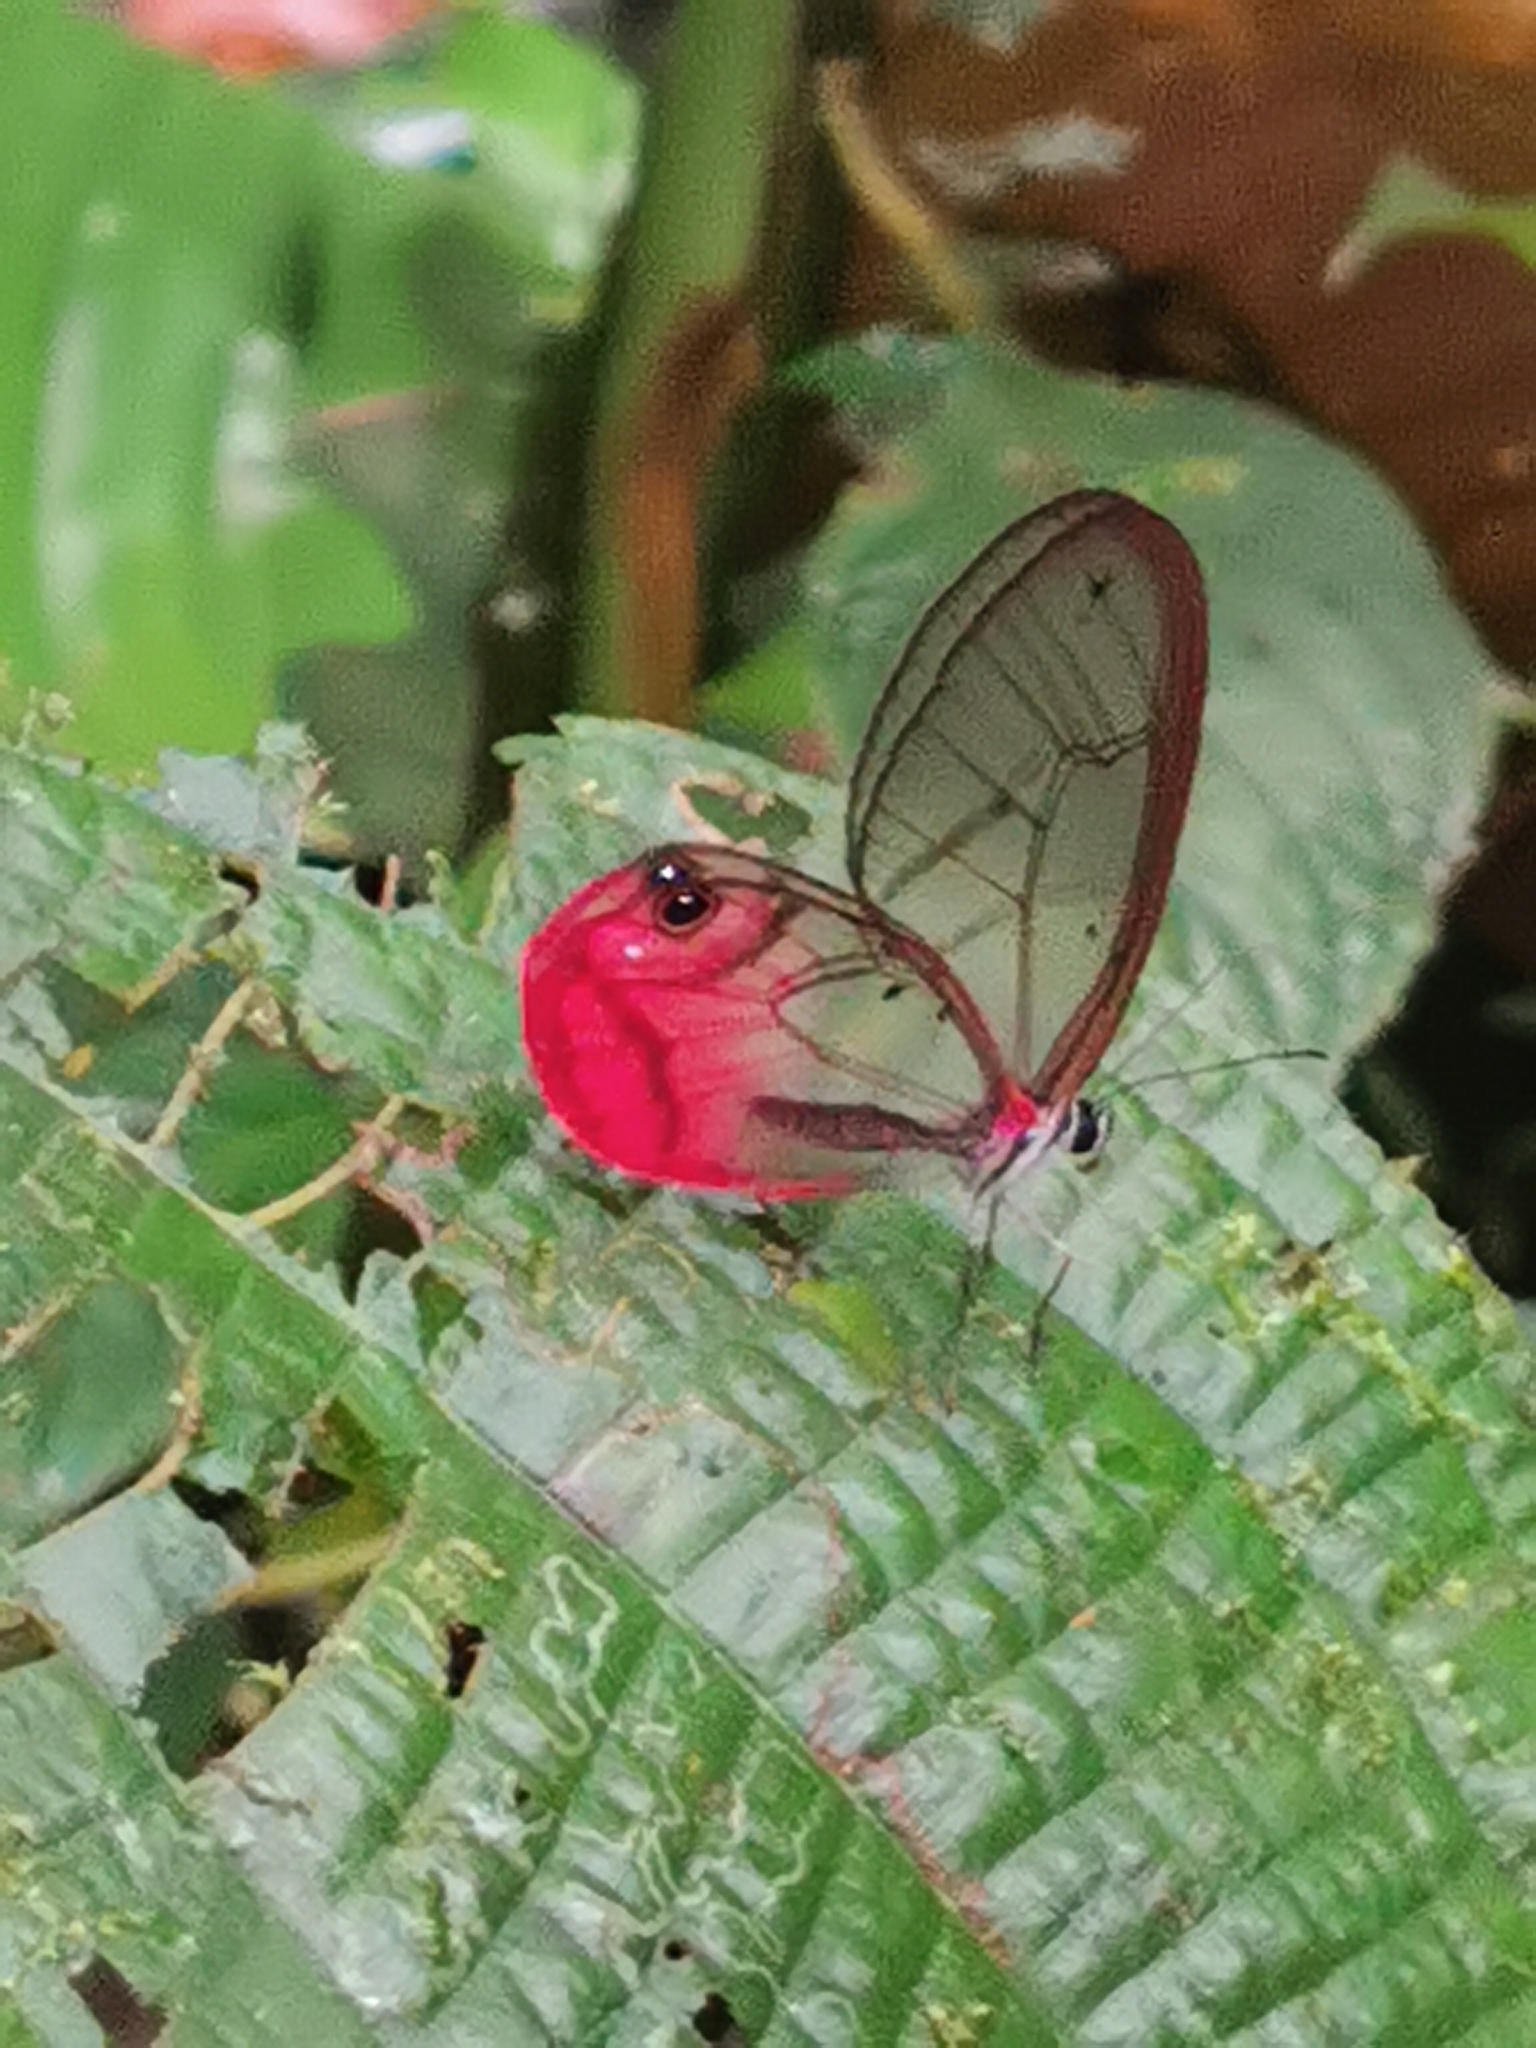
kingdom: Animalia
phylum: Arthropoda
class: Insecta
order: Lepidoptera
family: Nymphalidae
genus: Cithaerias
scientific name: Cithaerias pireta
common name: Rusted clearwing-satyr
